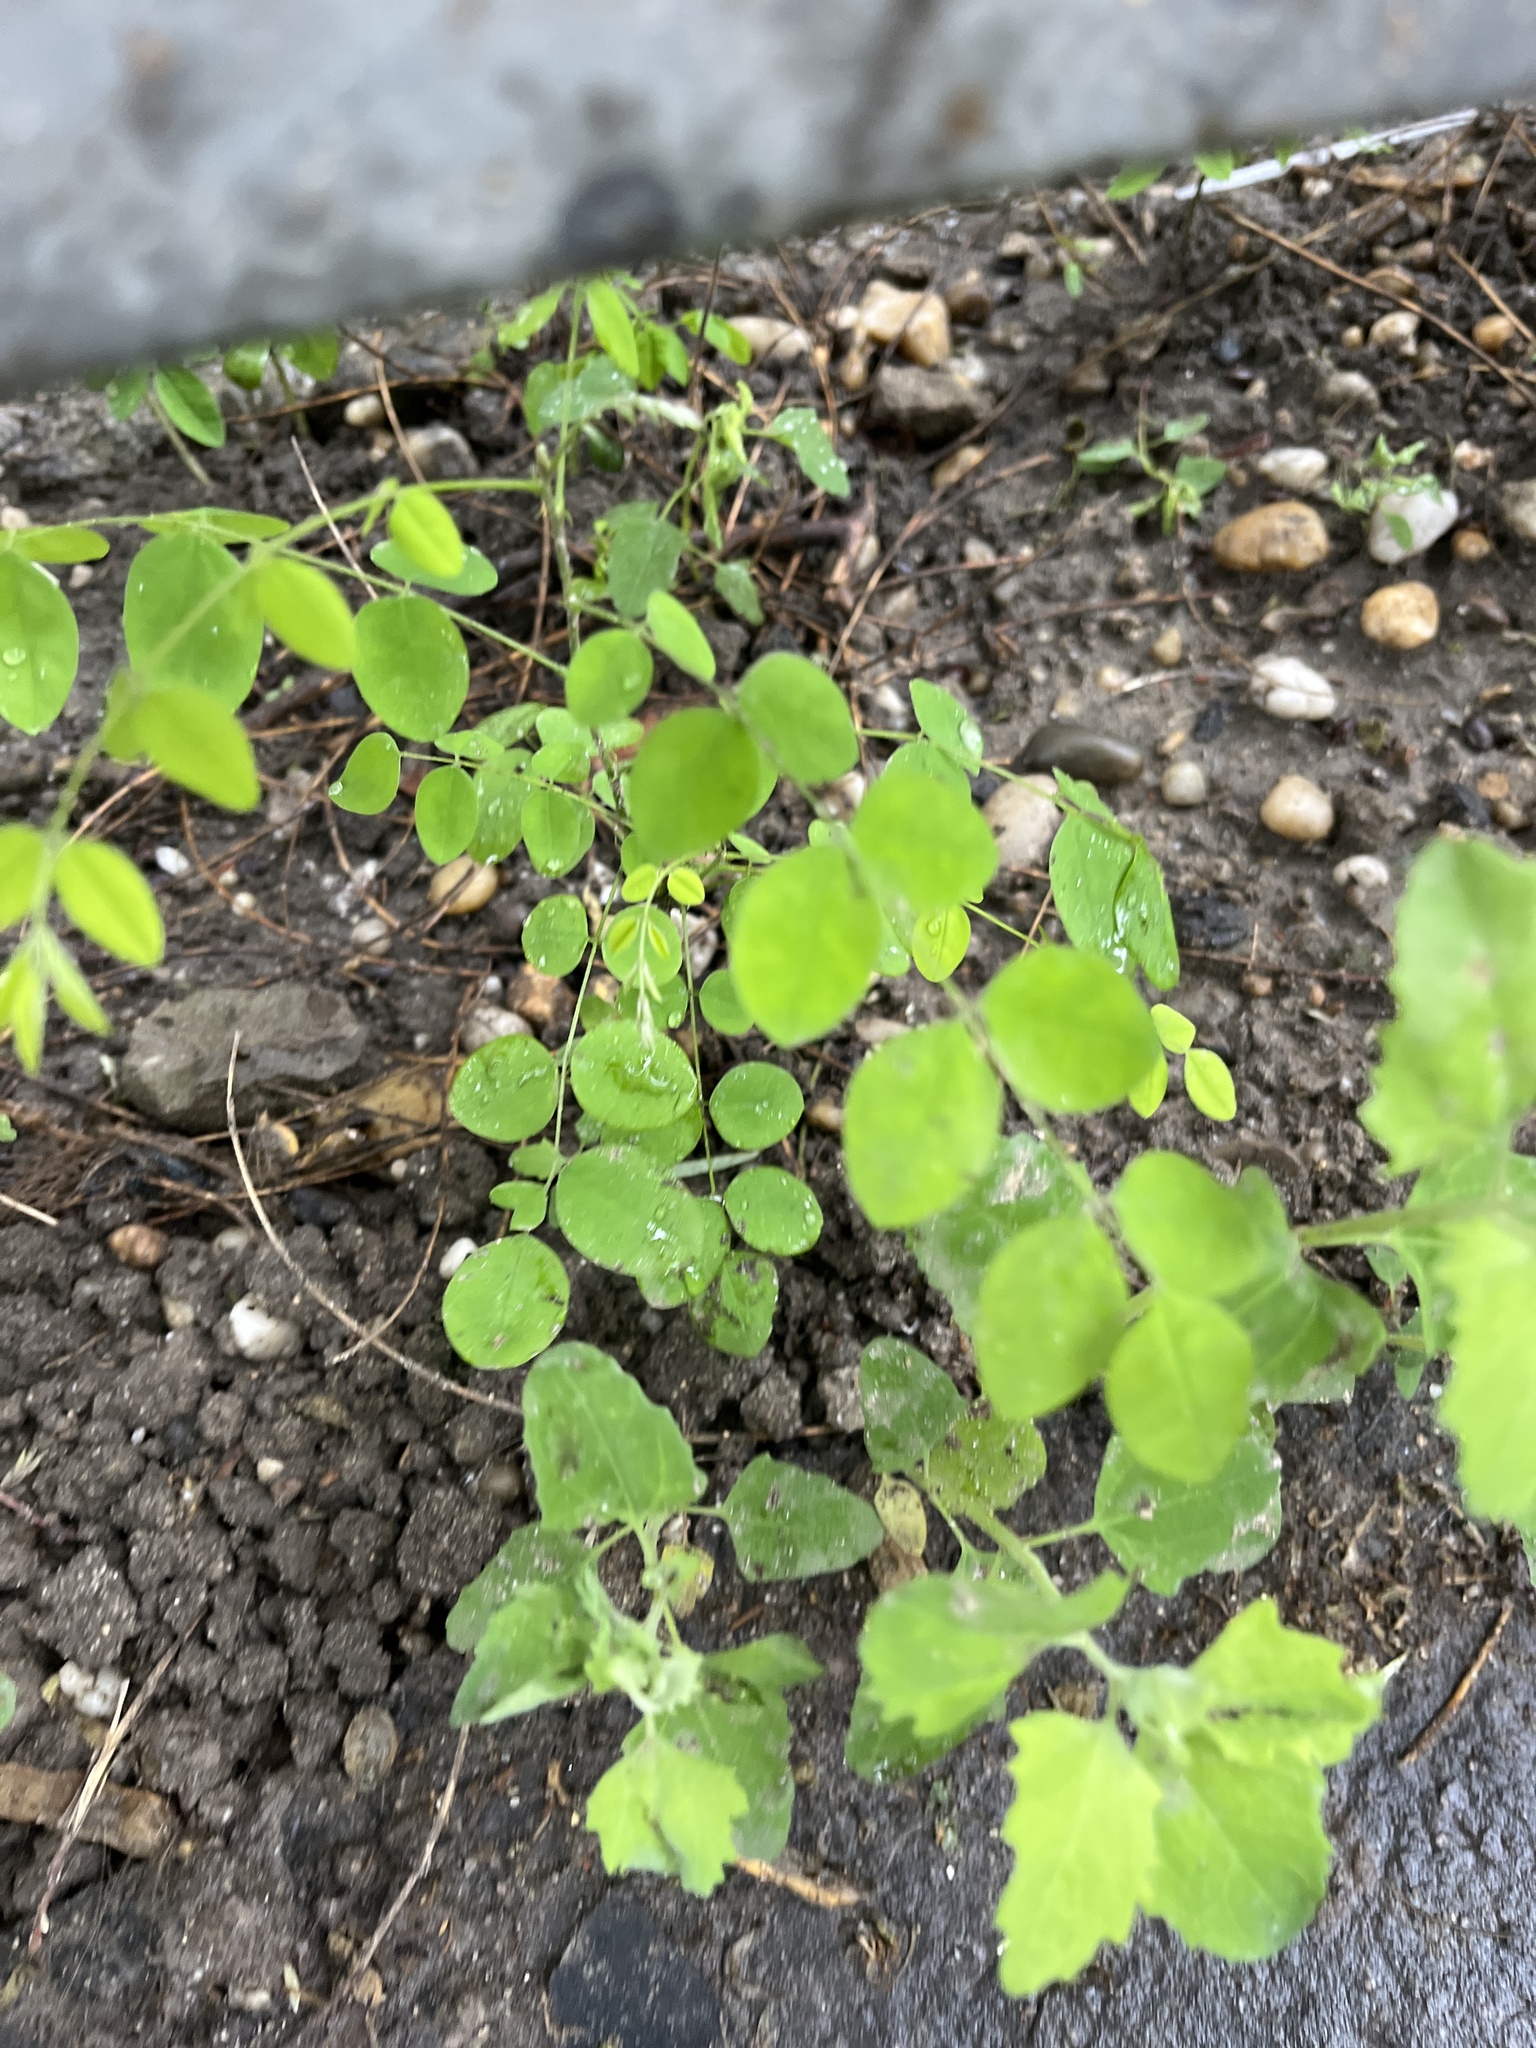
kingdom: Plantae
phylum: Tracheophyta
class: Magnoliopsida
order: Fabales
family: Fabaceae
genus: Robinia
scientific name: Robinia pseudoacacia
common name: Black locust
